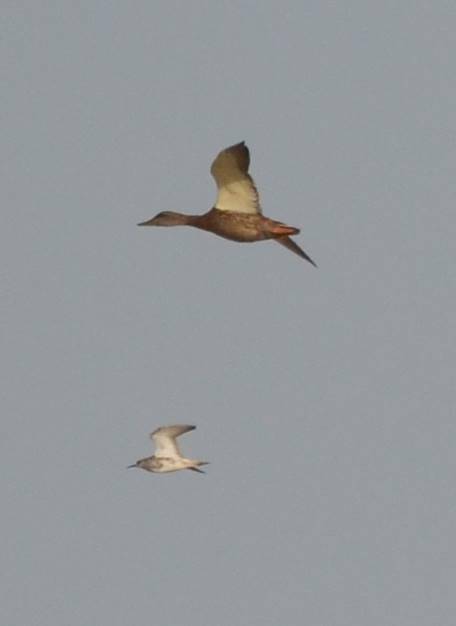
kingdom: Animalia
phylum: Chordata
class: Aves
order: Charadriiformes
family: Scolopacidae
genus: Calidris
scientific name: Calidris pugnax
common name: Ruff
